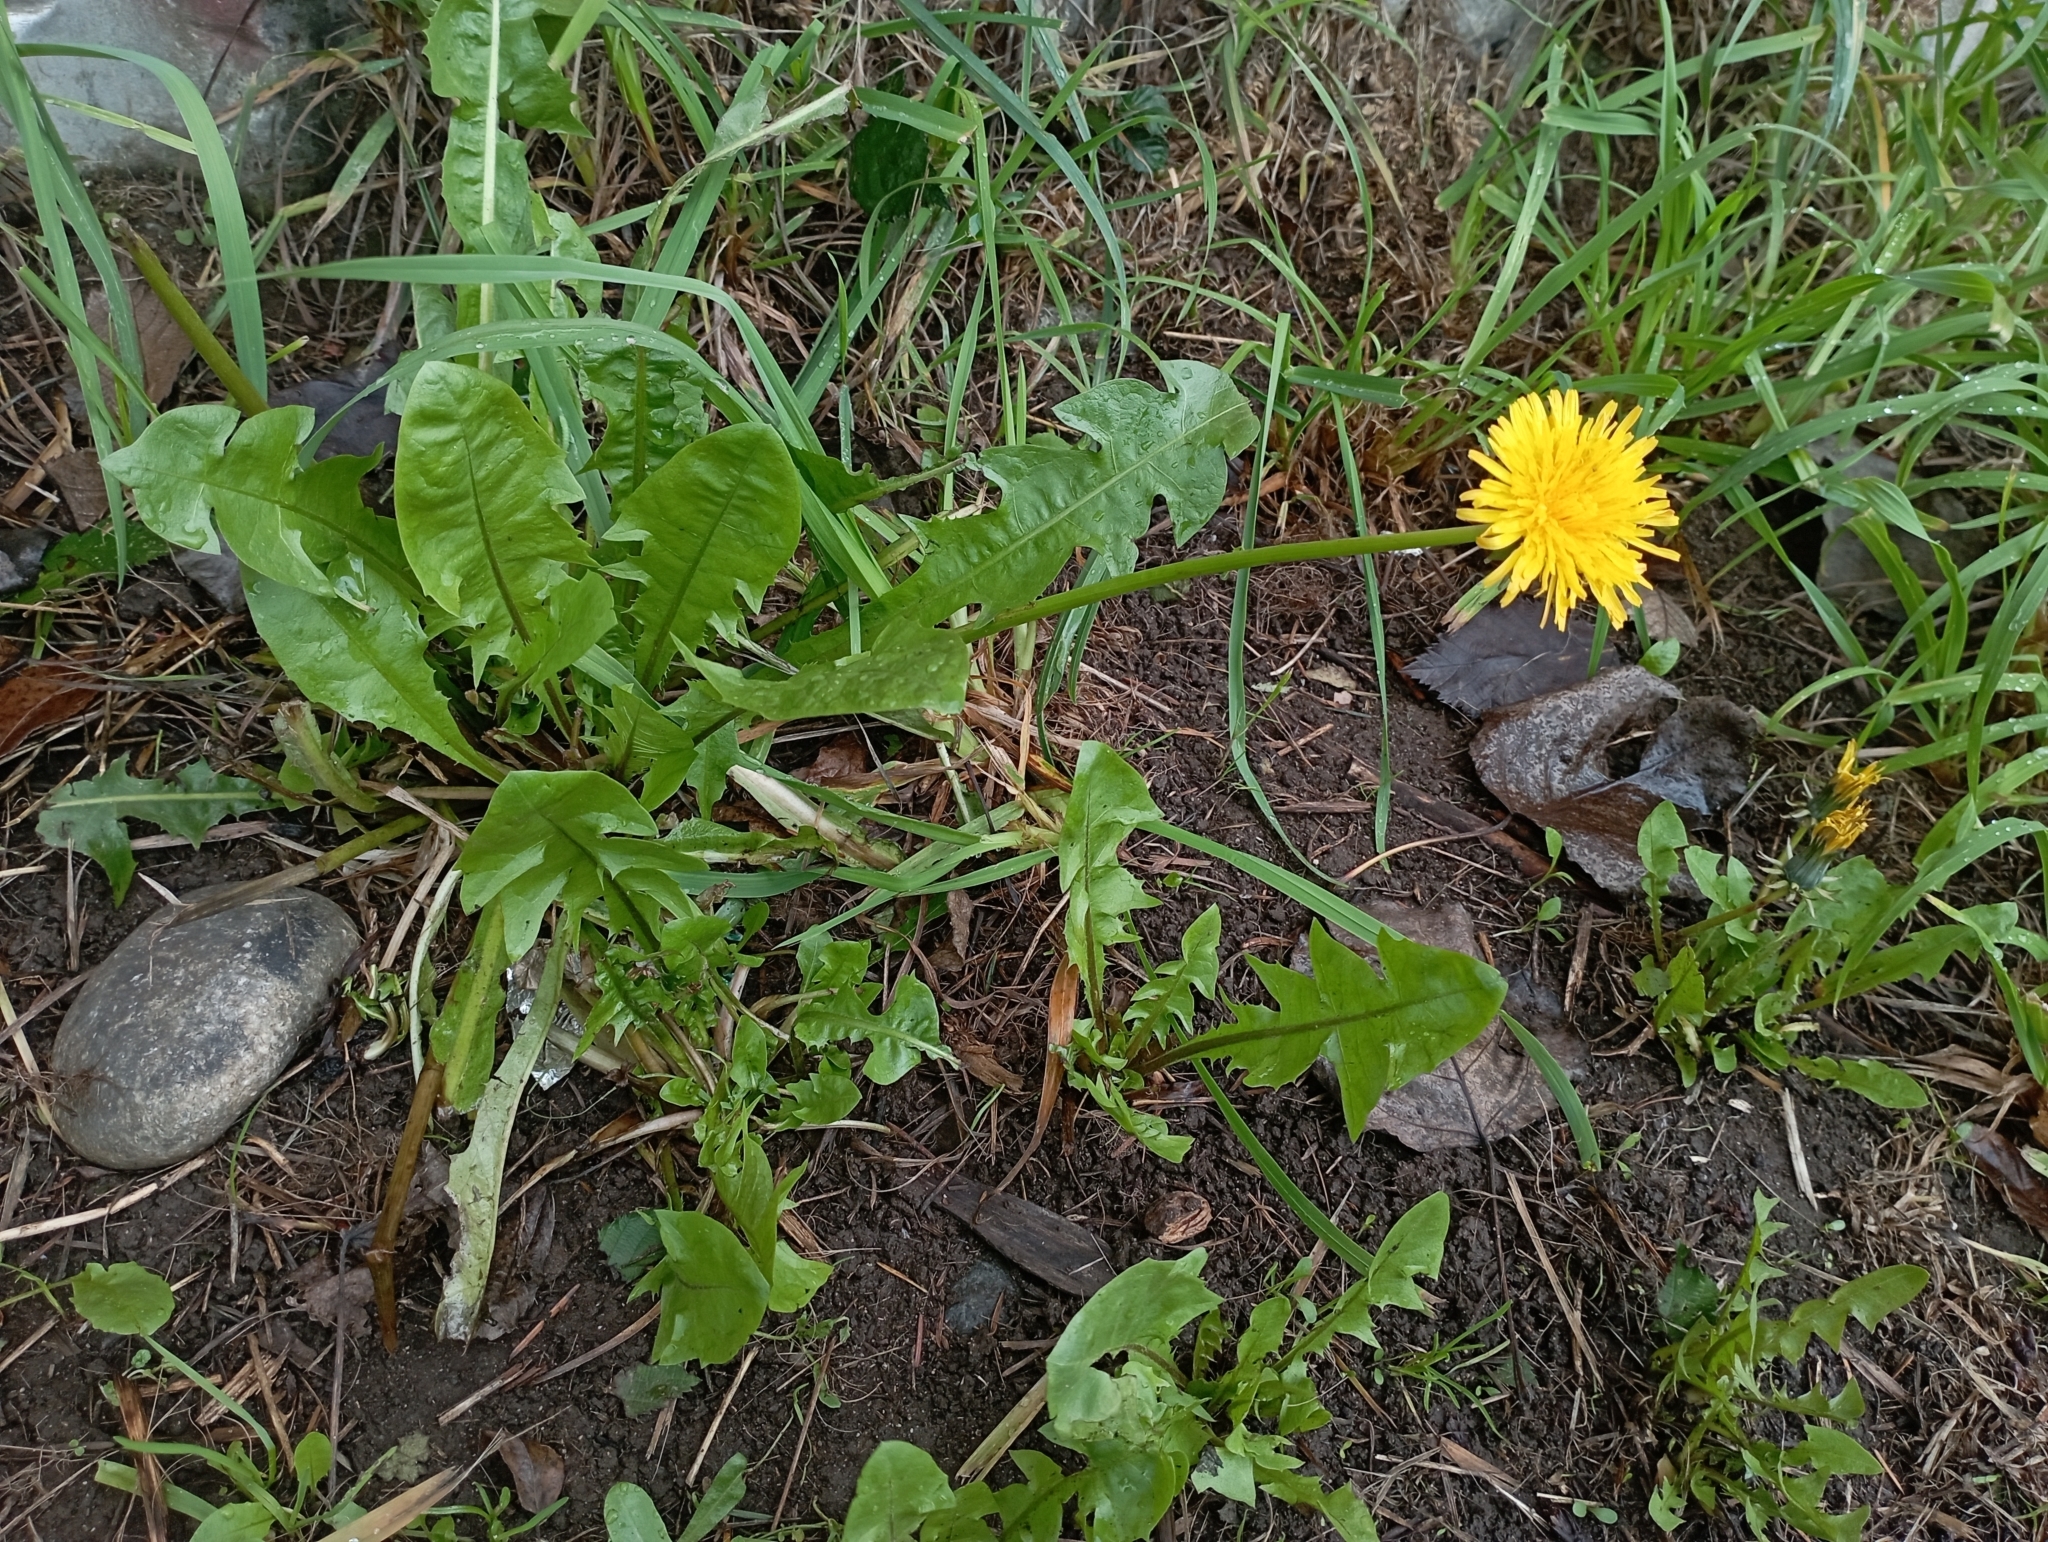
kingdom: Plantae
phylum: Tracheophyta
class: Magnoliopsida
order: Asterales
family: Asteraceae
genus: Taraxacum
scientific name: Taraxacum officinale
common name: Common dandelion
